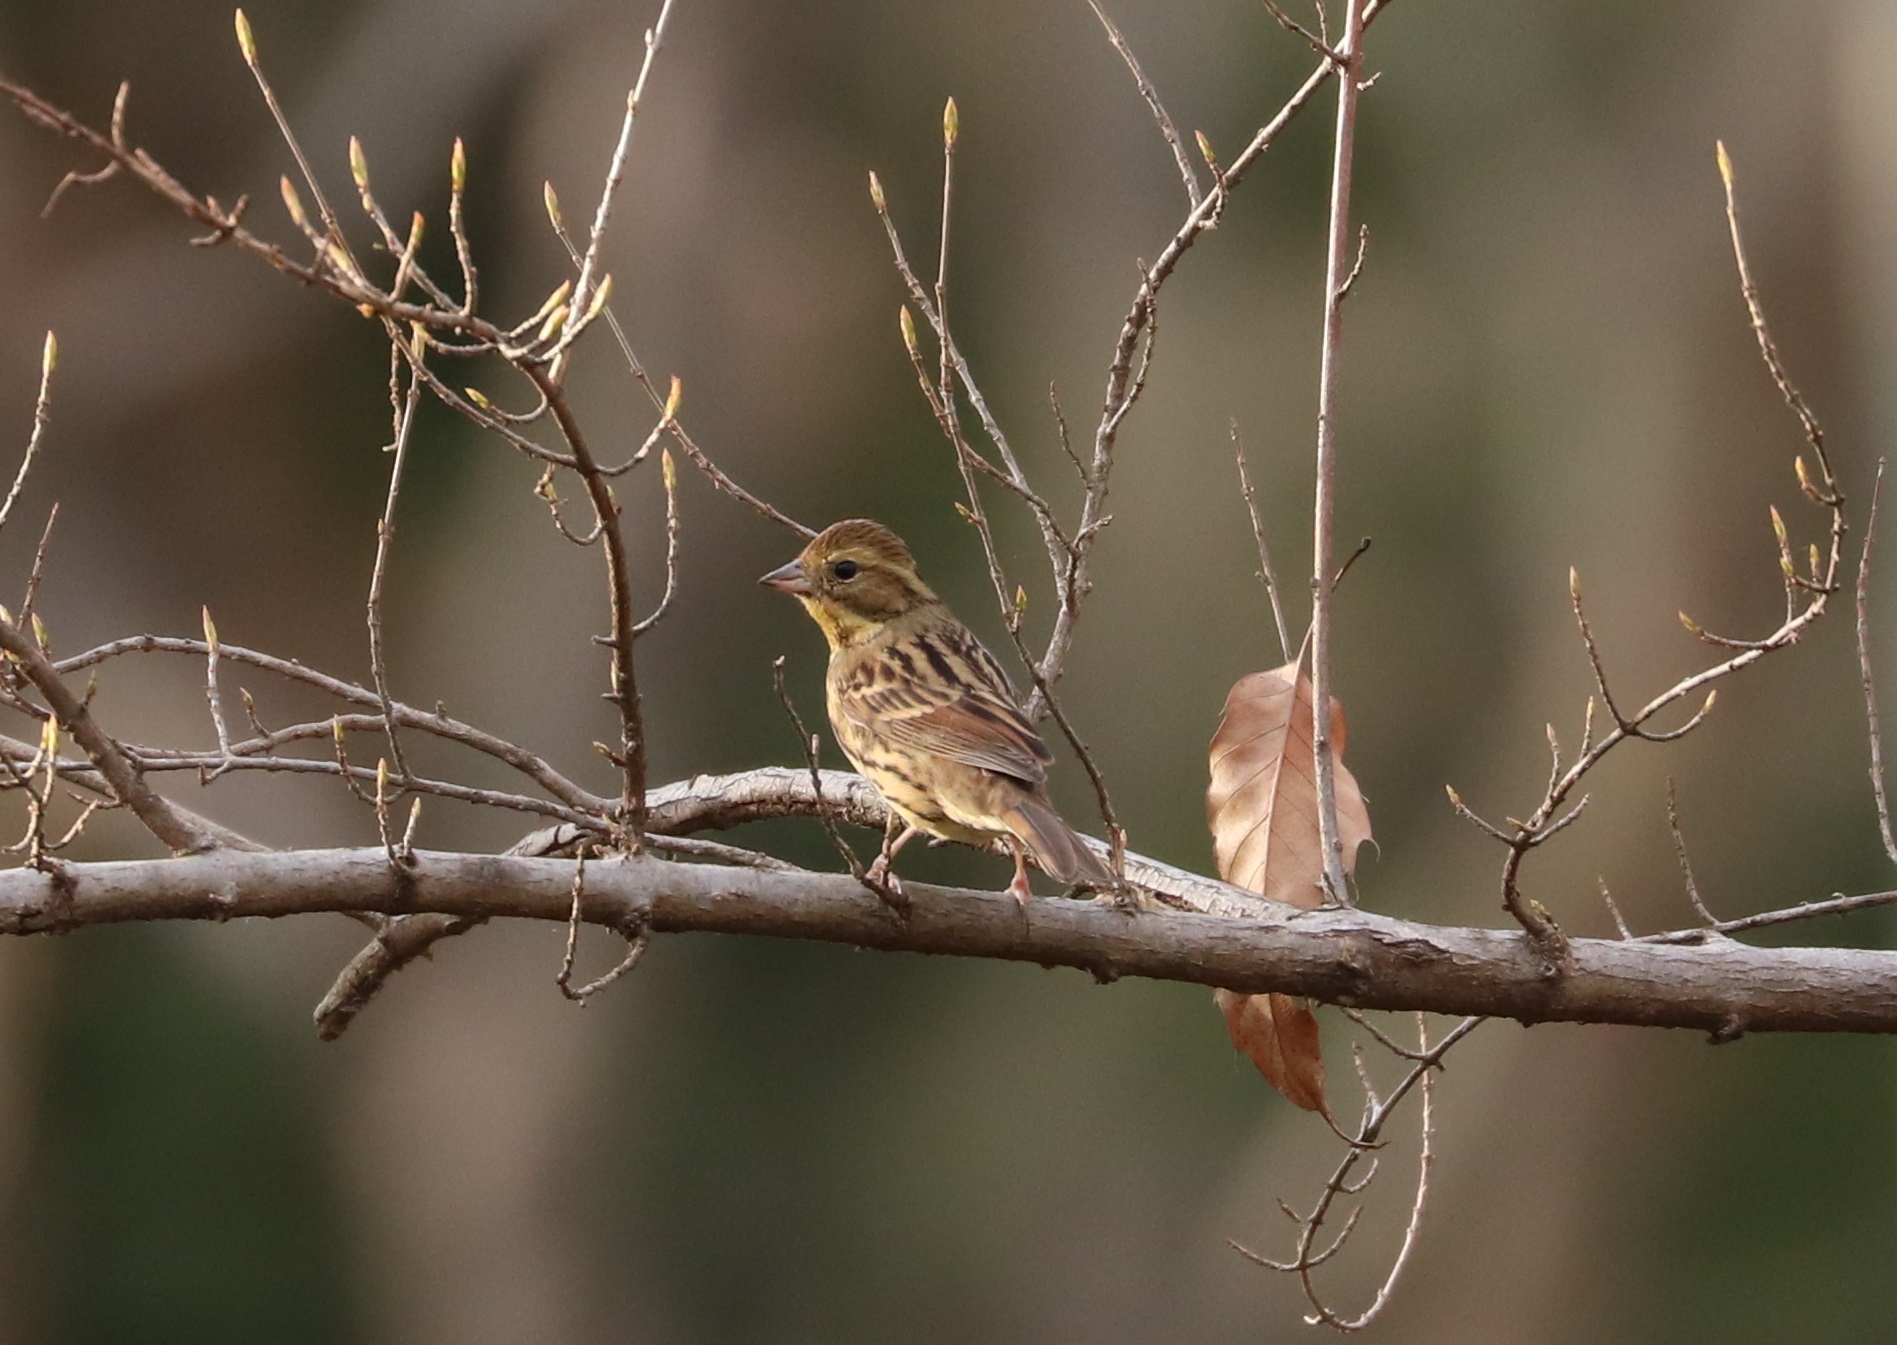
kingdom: Animalia
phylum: Chordata
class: Aves
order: Passeriformes
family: Emberizidae
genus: Emberiza
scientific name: Emberiza personata
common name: Masked bunting
